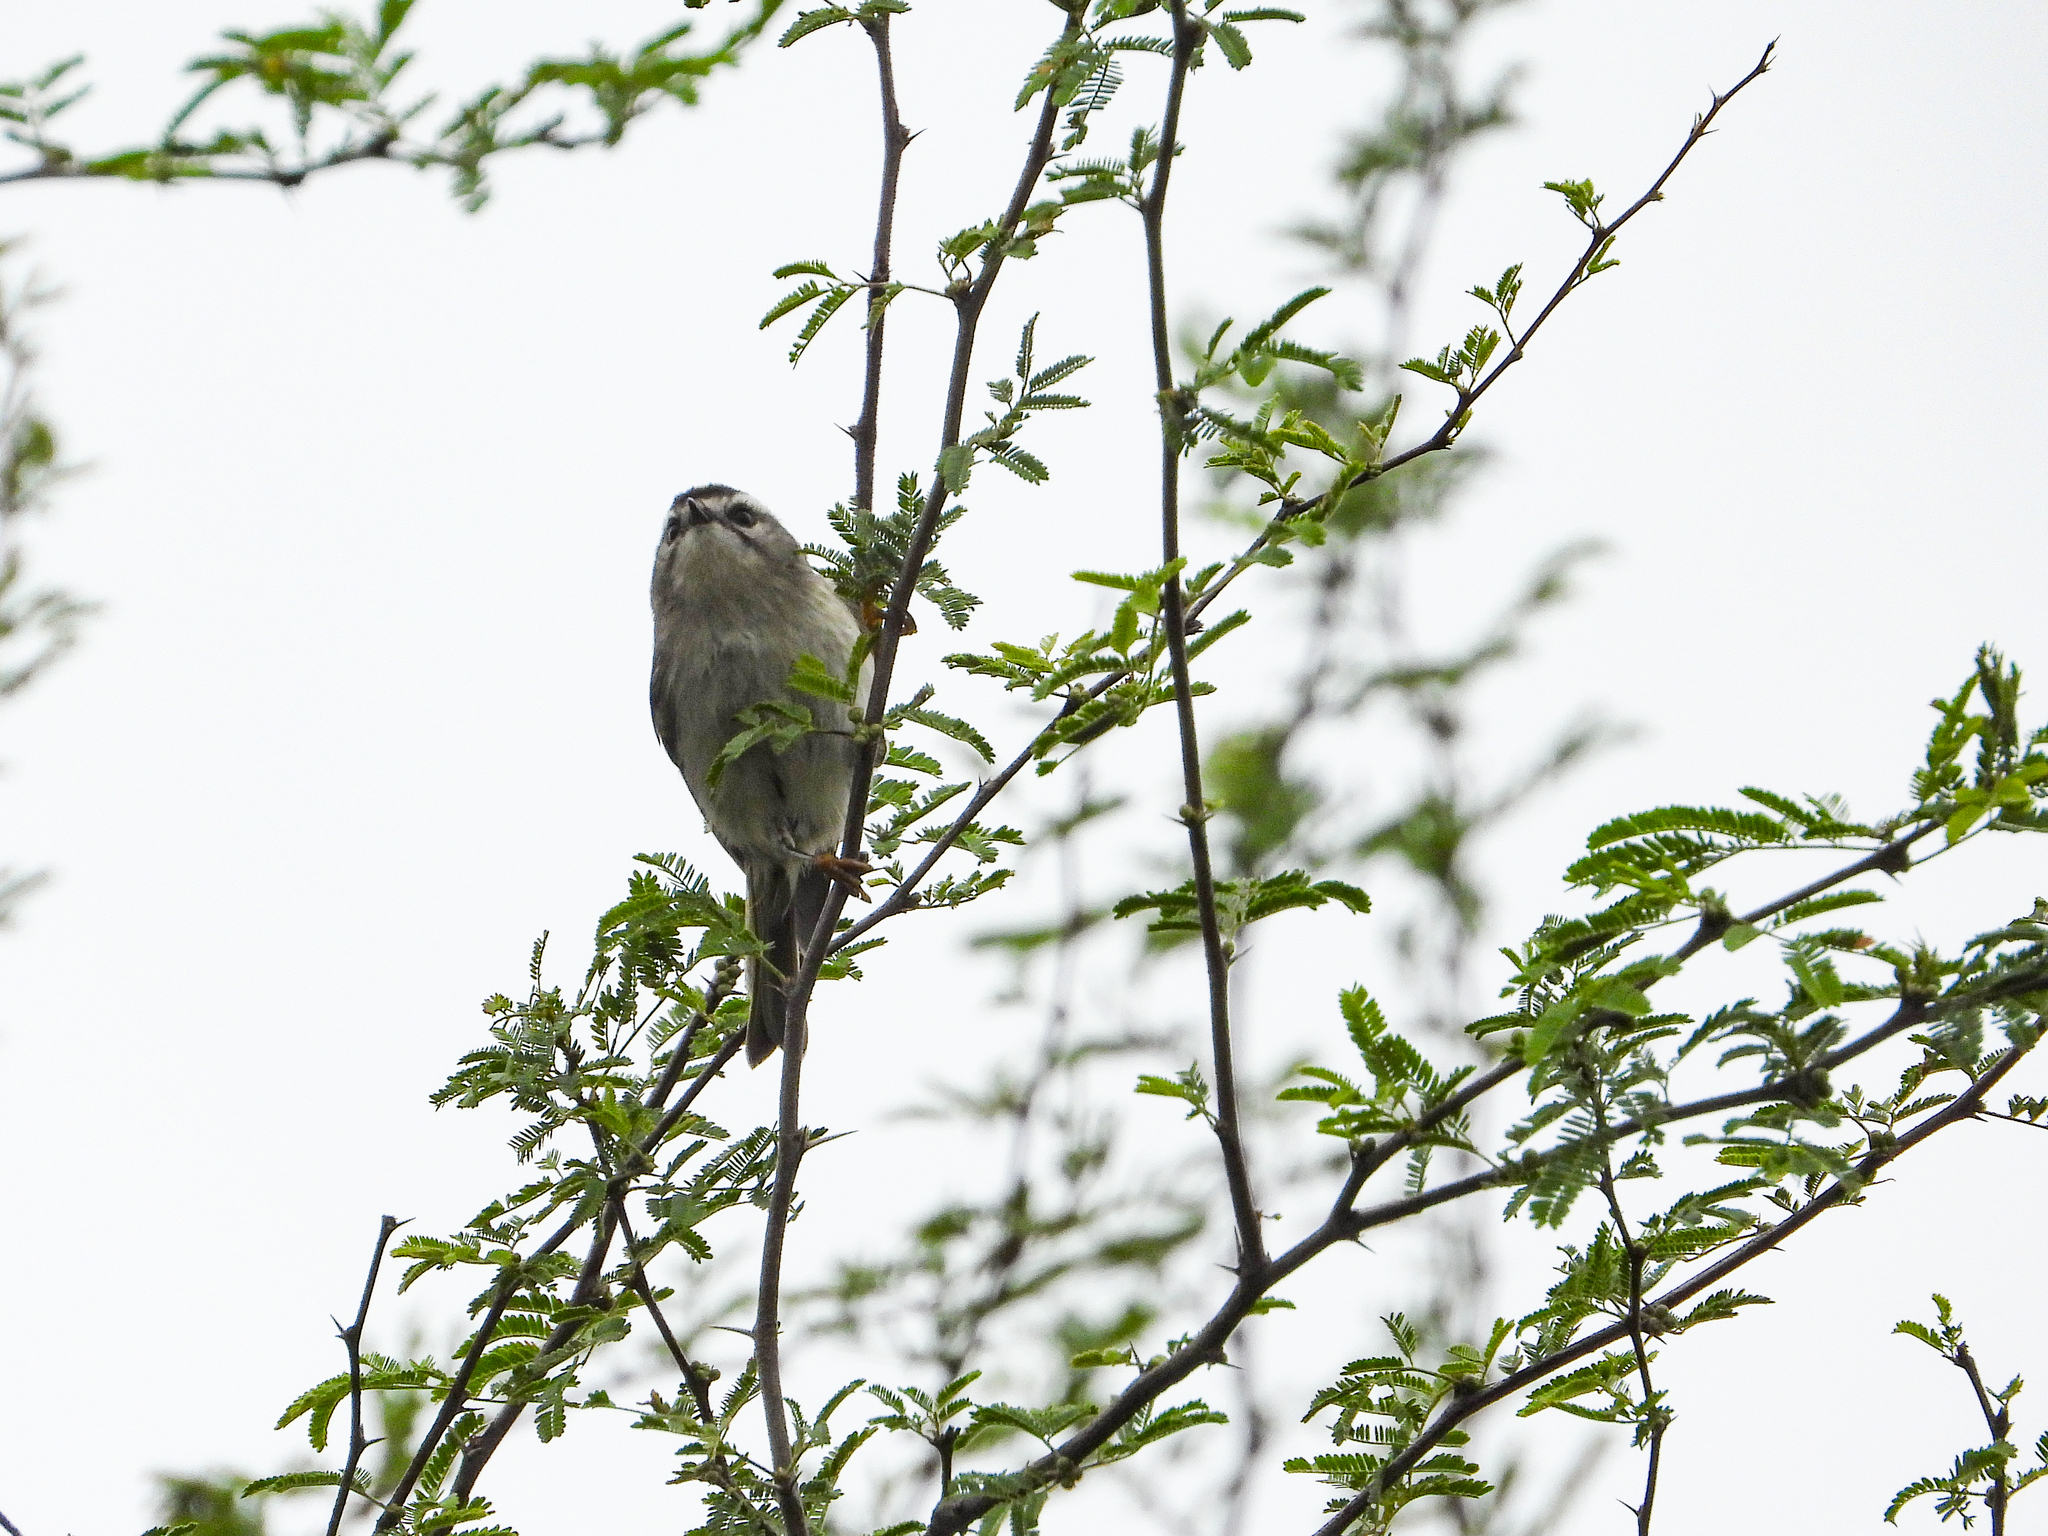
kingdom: Animalia
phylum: Chordata
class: Aves
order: Passeriformes
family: Regulidae
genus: Regulus
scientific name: Regulus satrapa
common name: Golden-crowned kinglet
